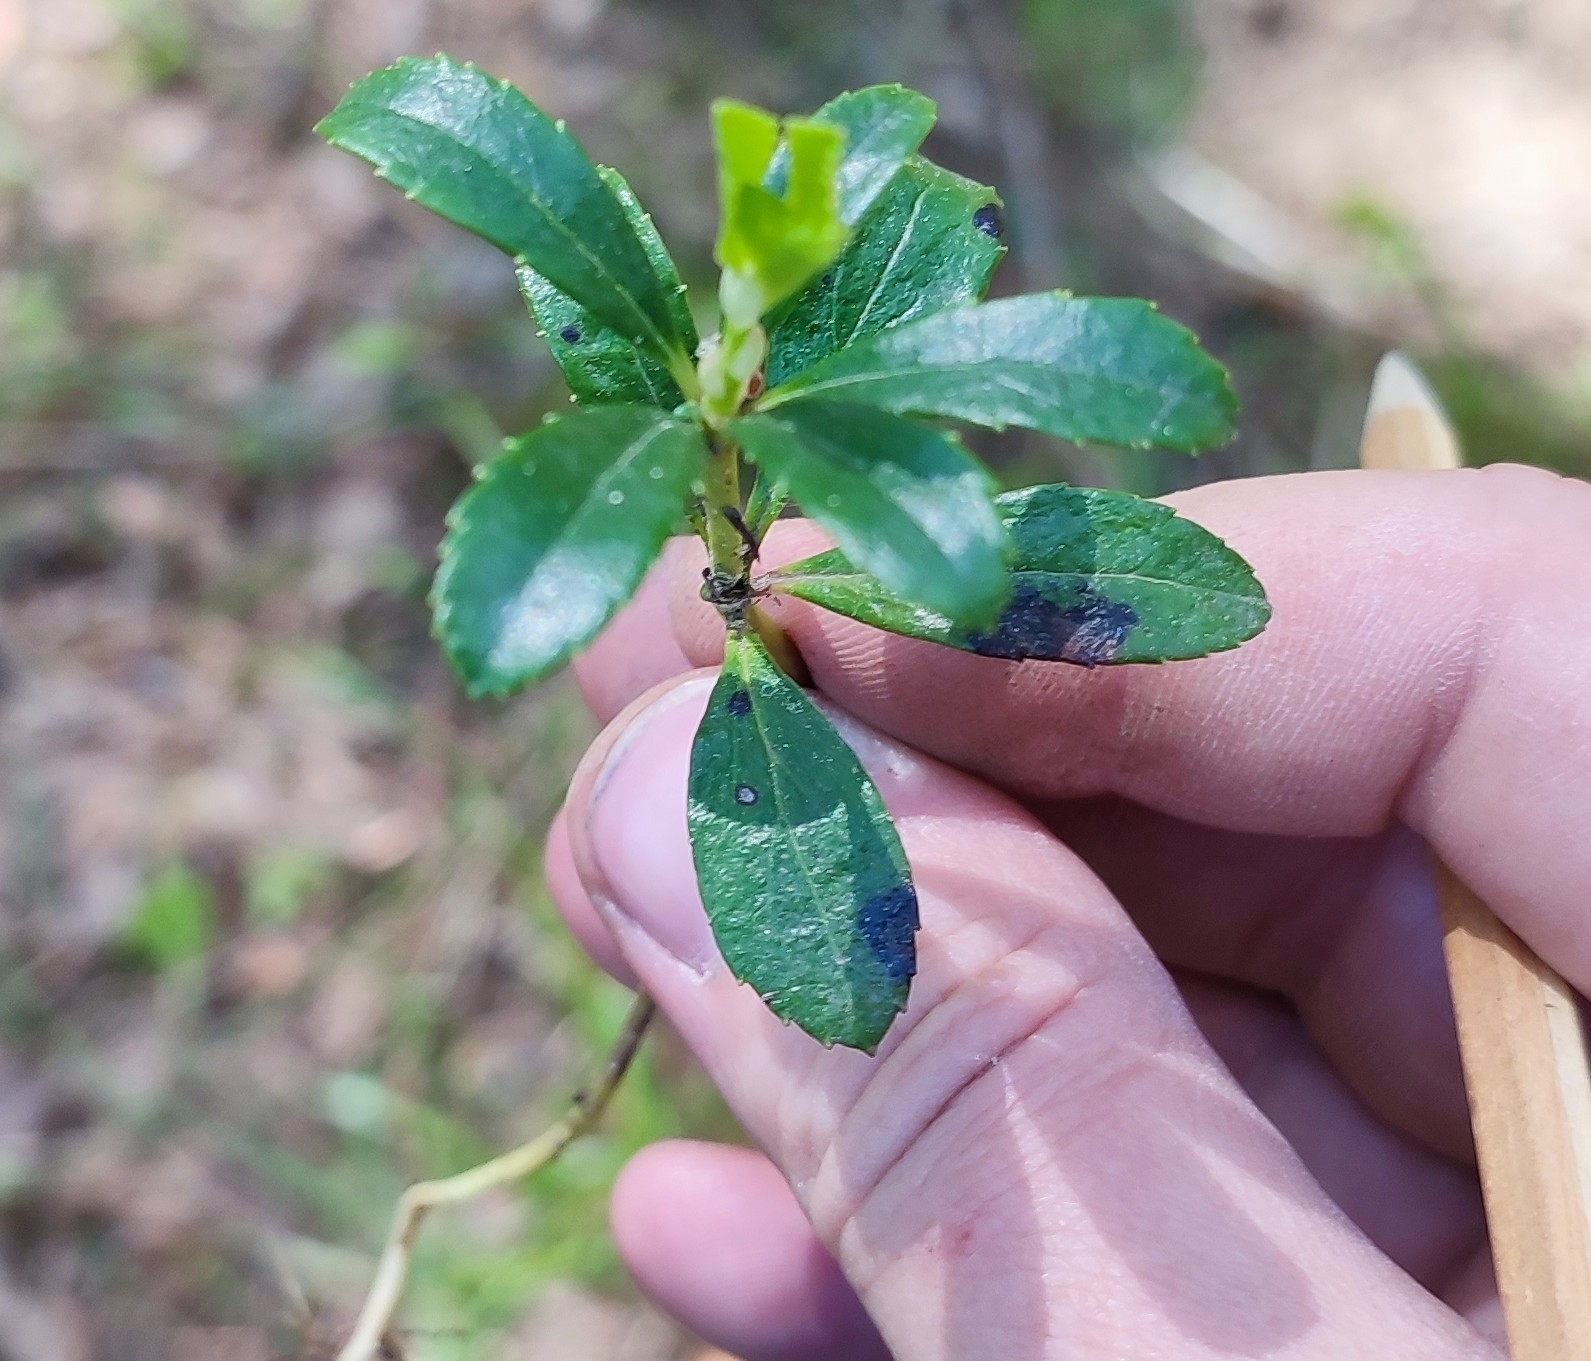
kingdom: Plantae
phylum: Tracheophyta
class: Magnoliopsida
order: Ericales
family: Ericaceae
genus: Chimaphila
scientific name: Chimaphila umbellata
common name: Pipsissewa
